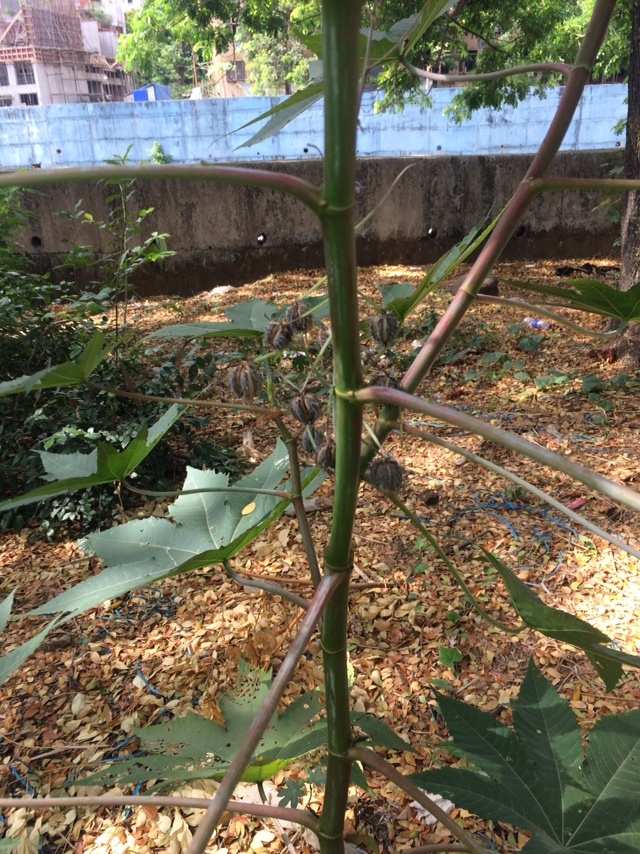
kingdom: Plantae
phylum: Tracheophyta
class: Magnoliopsida
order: Malpighiales
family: Euphorbiaceae
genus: Ricinus
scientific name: Ricinus communis
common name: Castor-oil-plant
